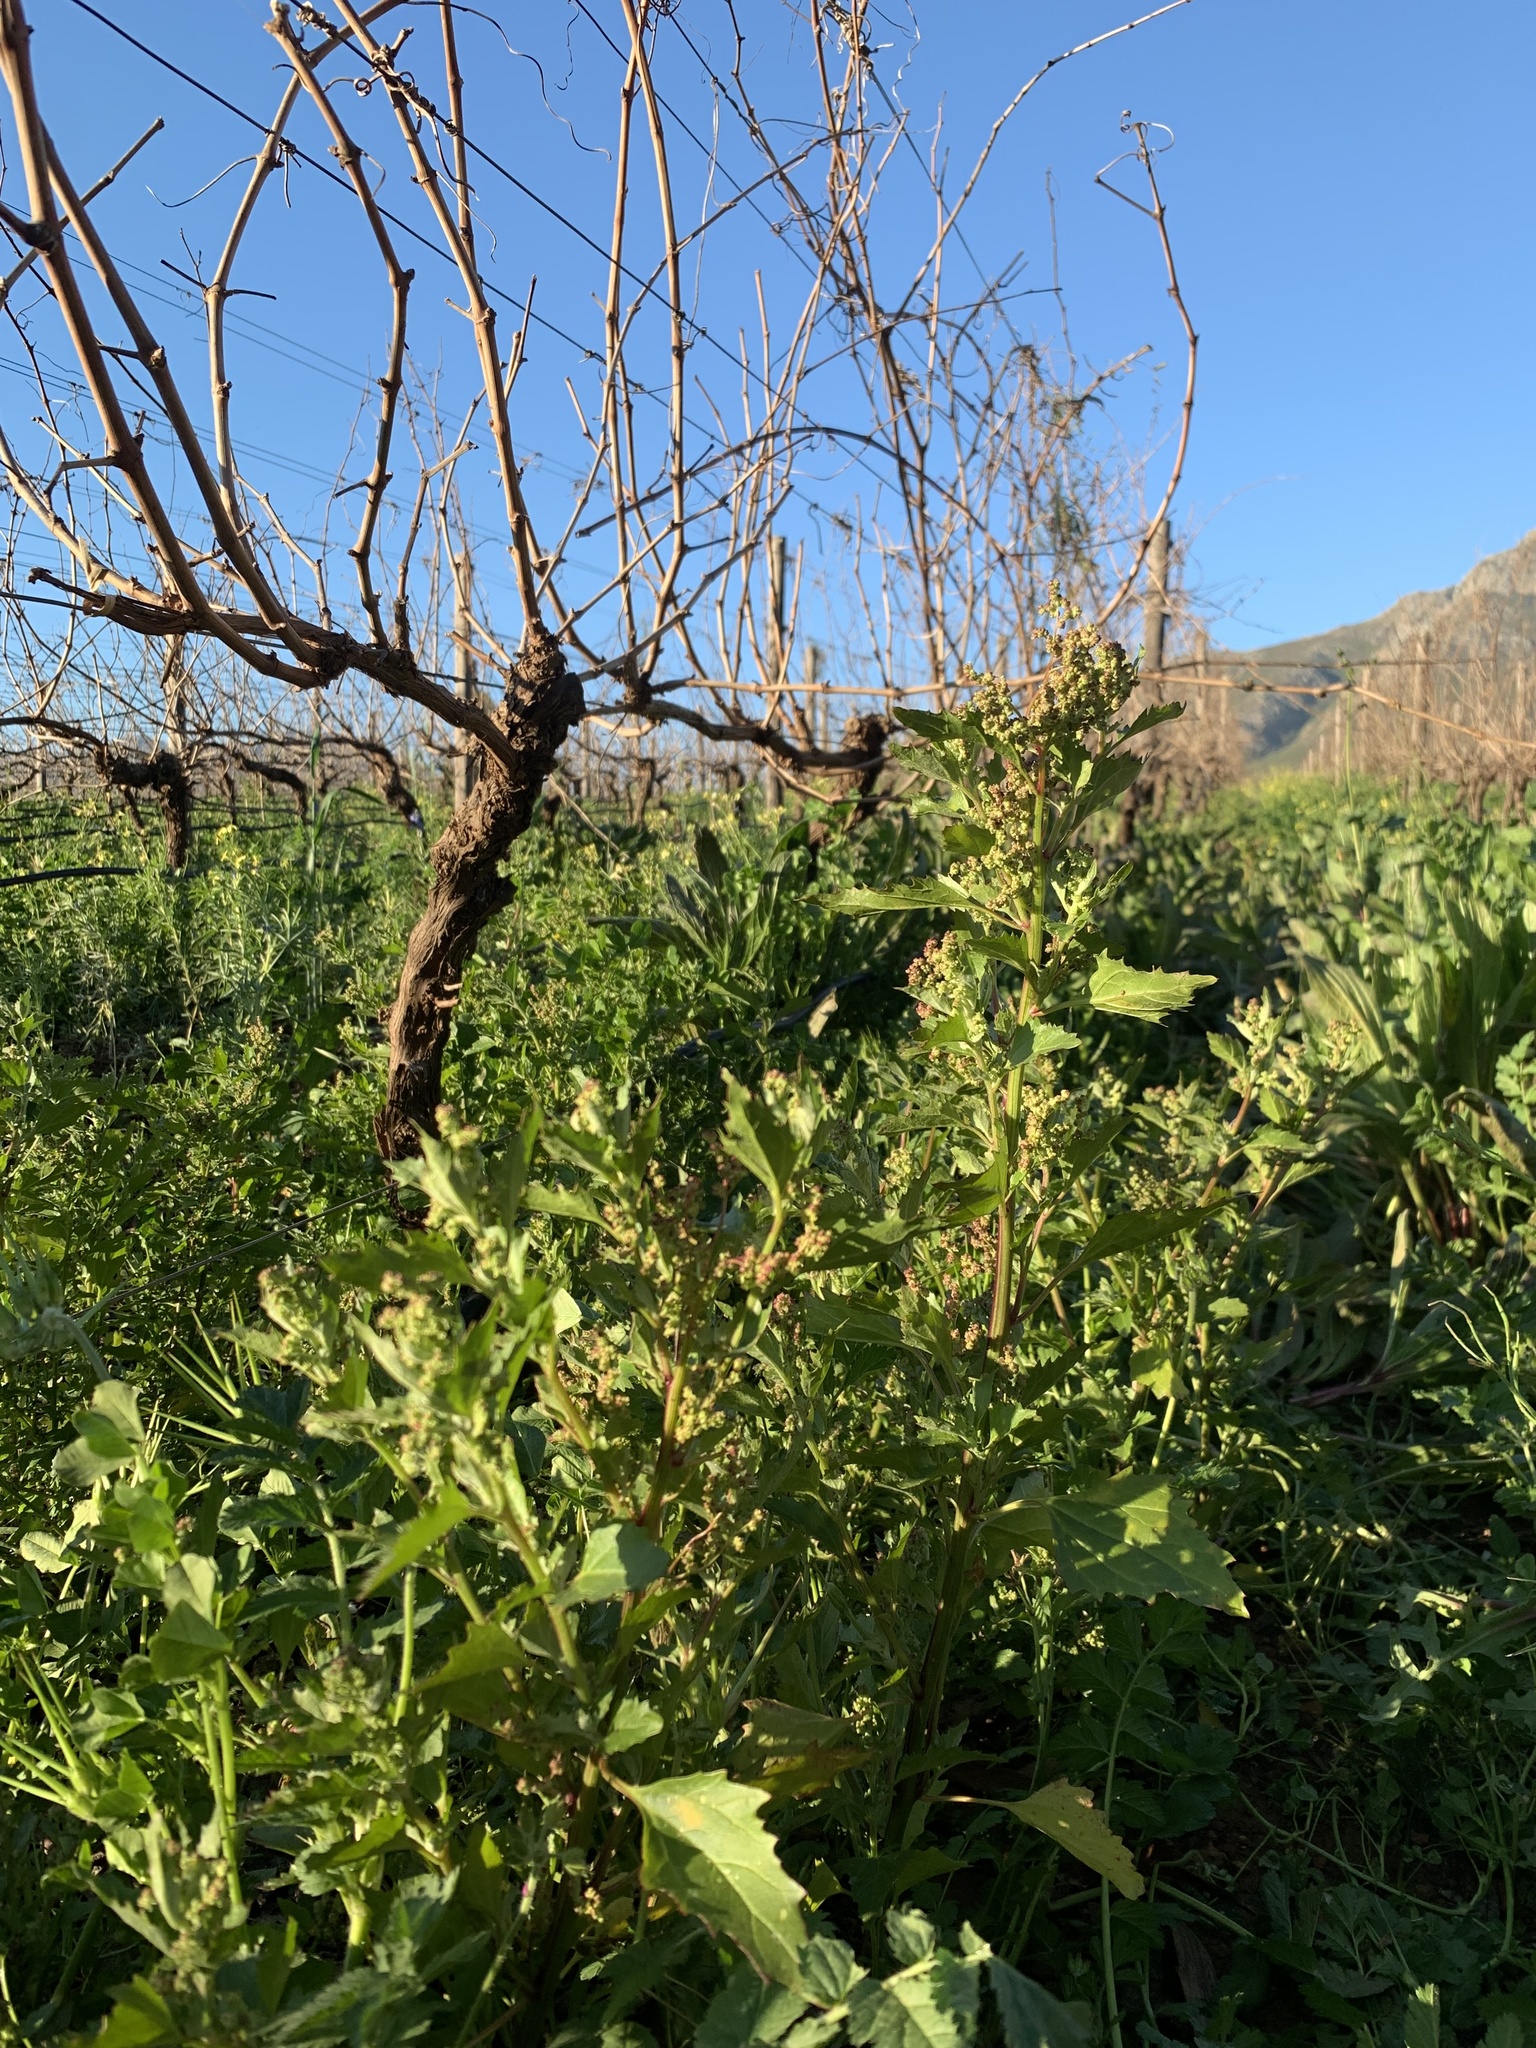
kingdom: Plantae
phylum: Tracheophyta
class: Magnoliopsida
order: Caryophyllales
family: Amaranthaceae
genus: Chenopodiastrum
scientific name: Chenopodiastrum murale
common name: Sowbane
